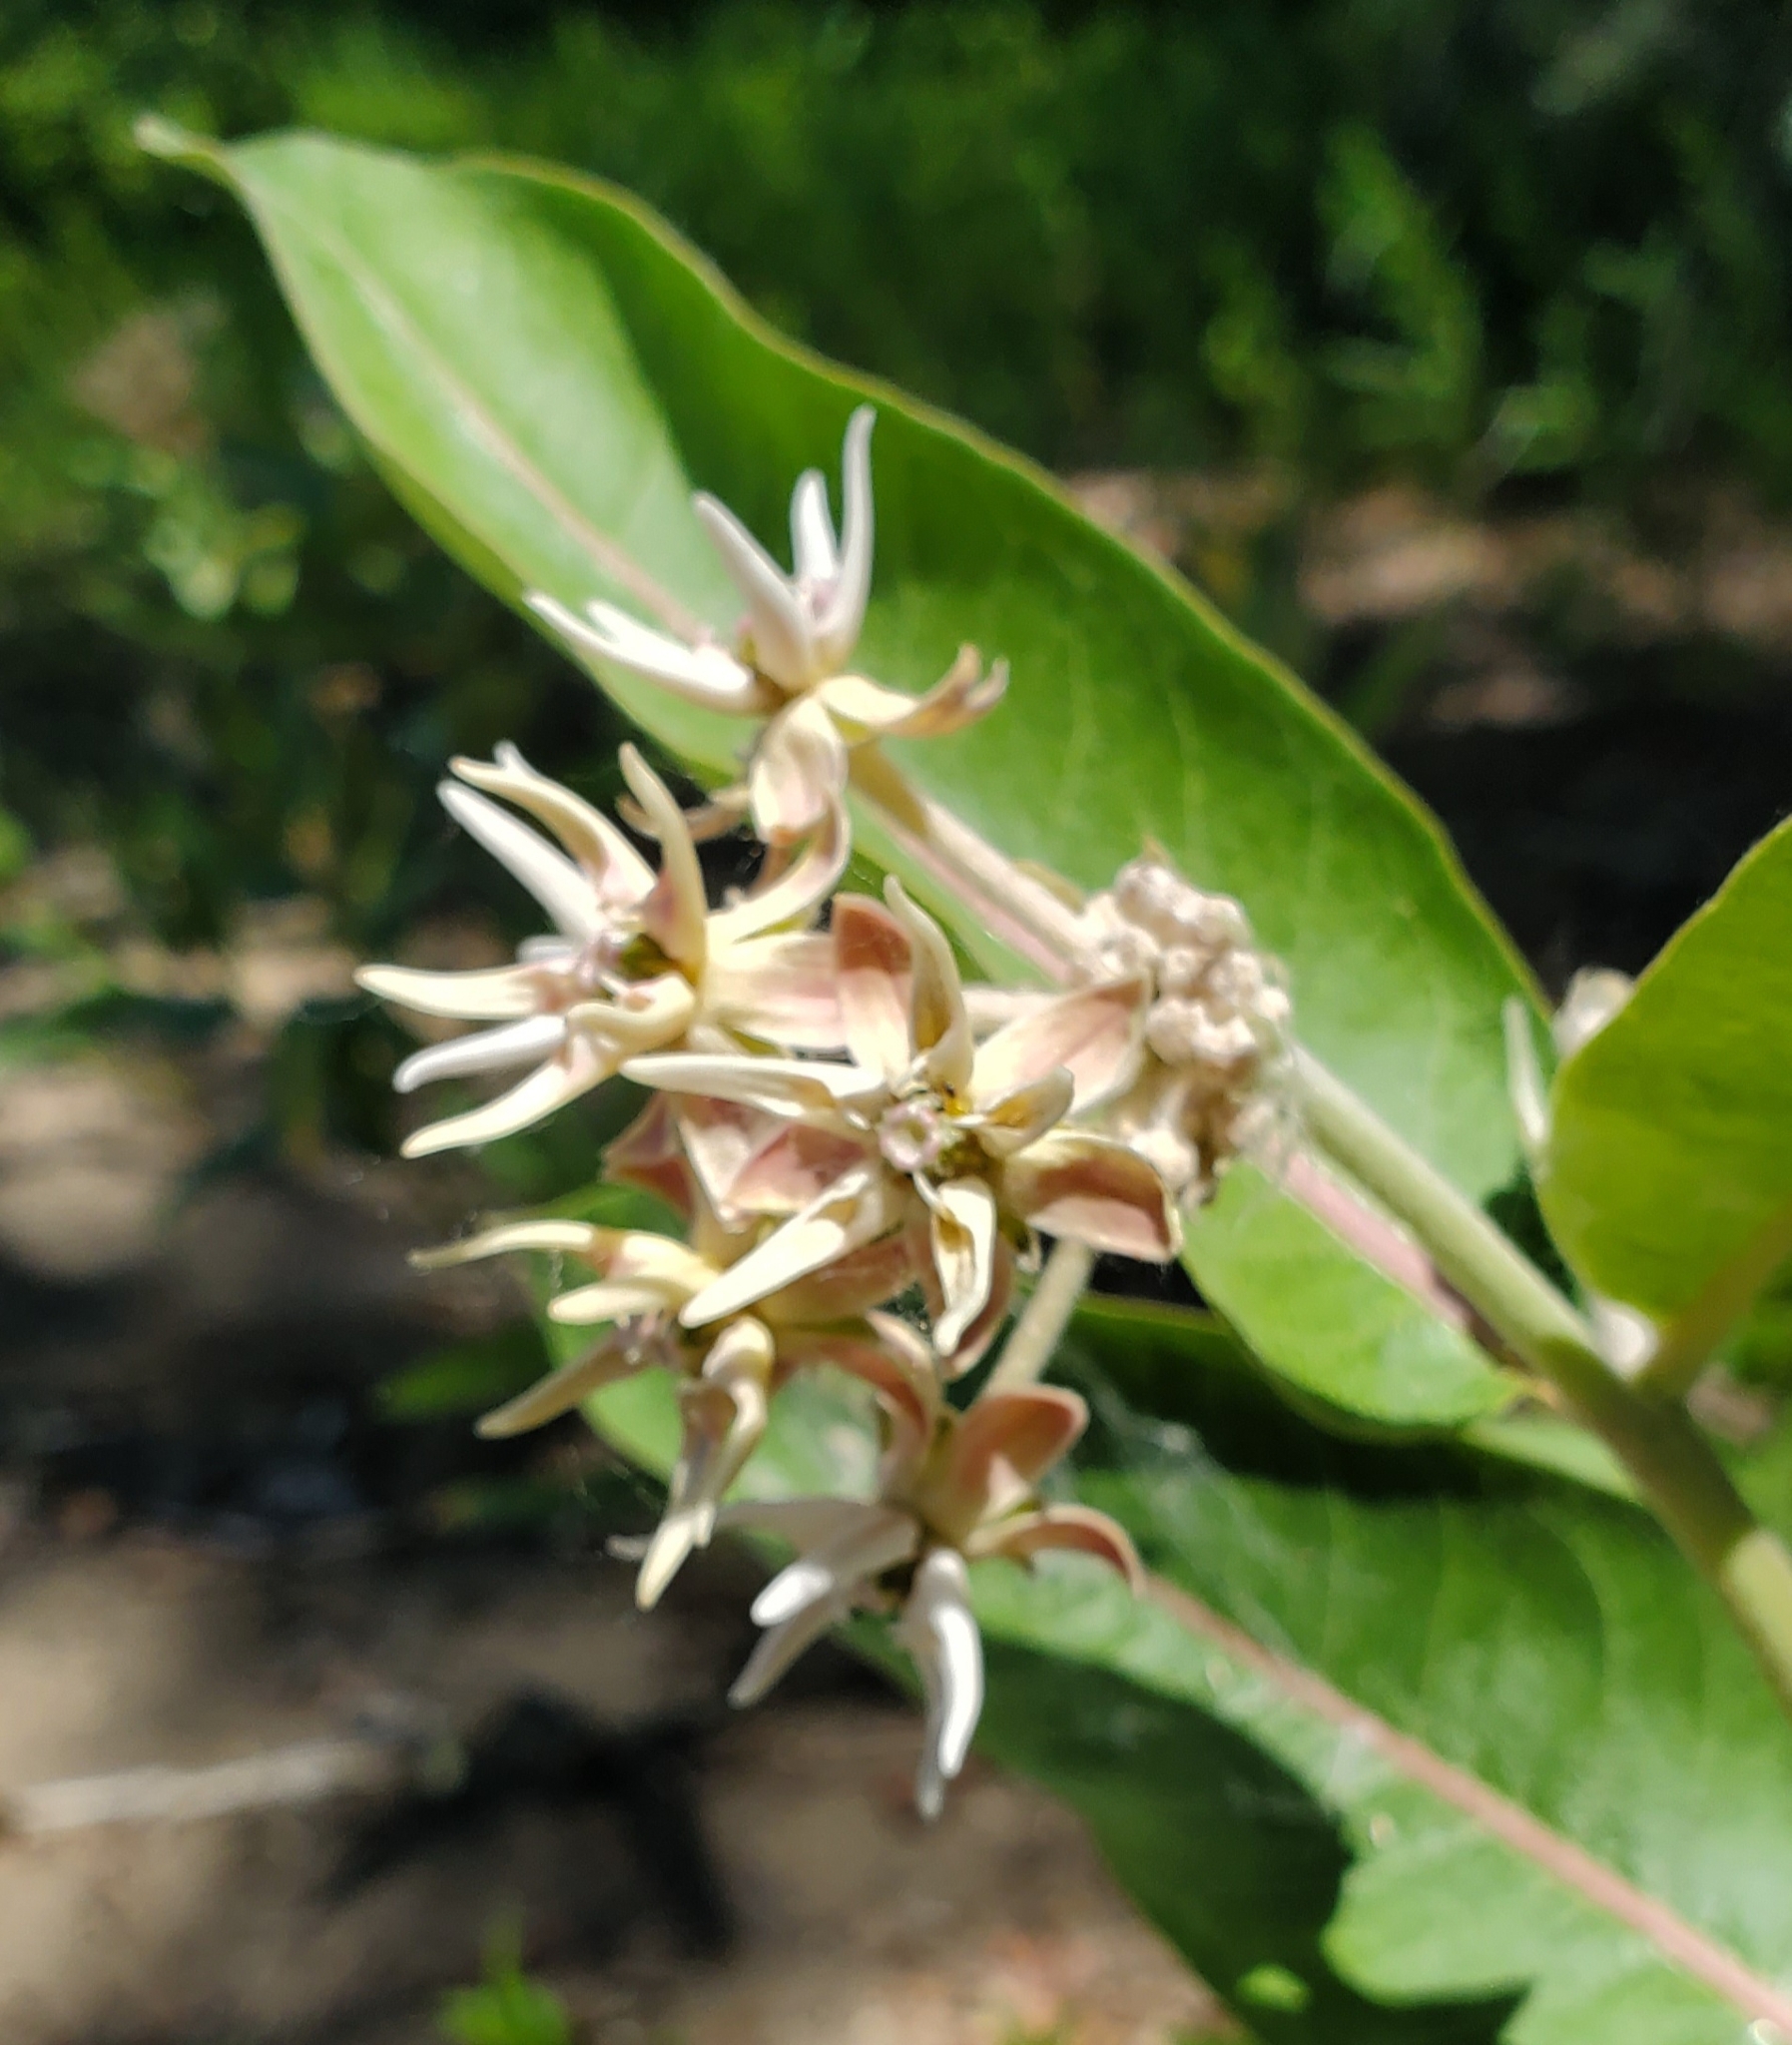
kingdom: Plantae
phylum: Tracheophyta
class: Magnoliopsida
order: Gentianales
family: Apocynaceae
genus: Asclepias
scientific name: Asclepias speciosa
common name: Showy milkweed
